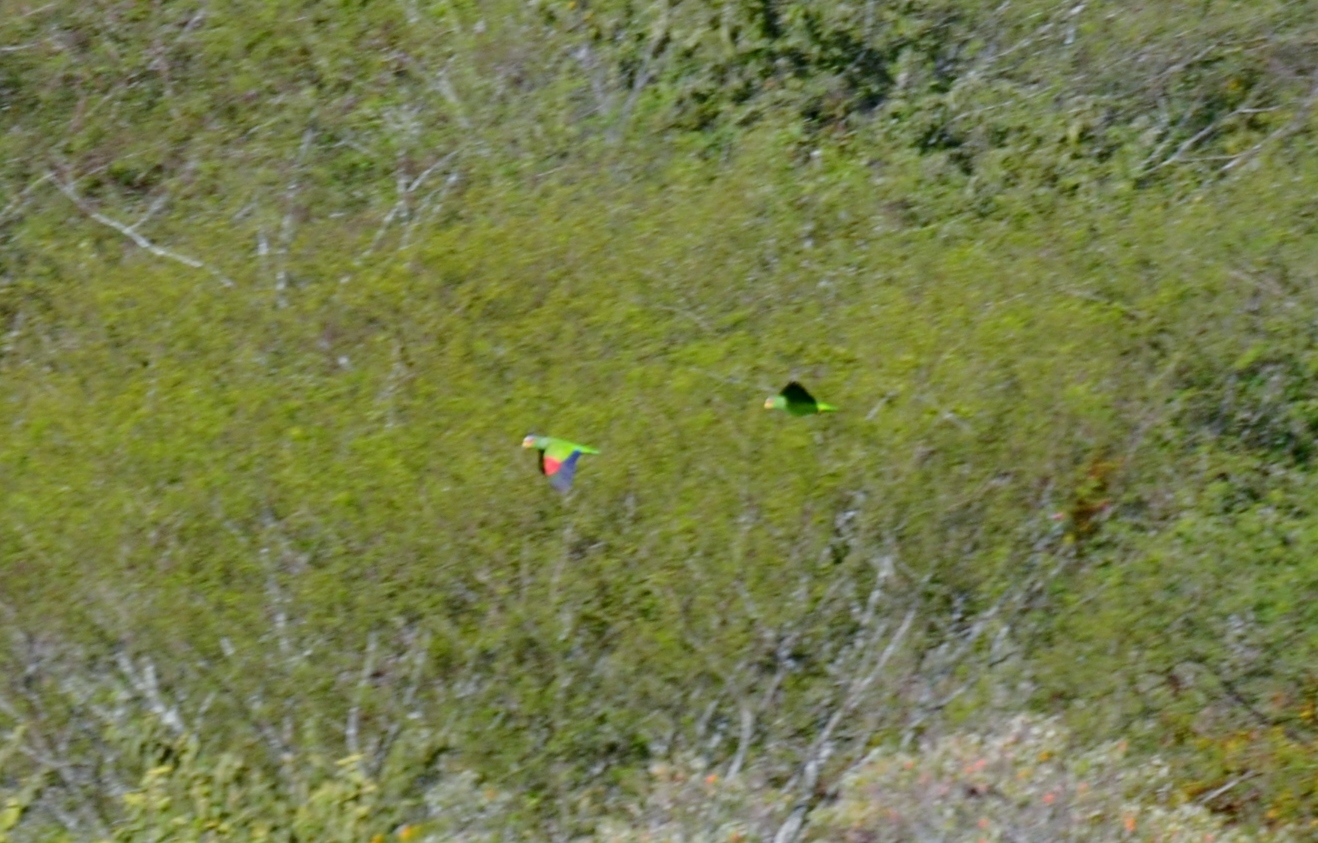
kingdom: Animalia
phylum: Chordata
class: Aves
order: Psittaciformes
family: Psittacidae
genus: Amazona
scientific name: Amazona albifrons
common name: White-fronted amazon
